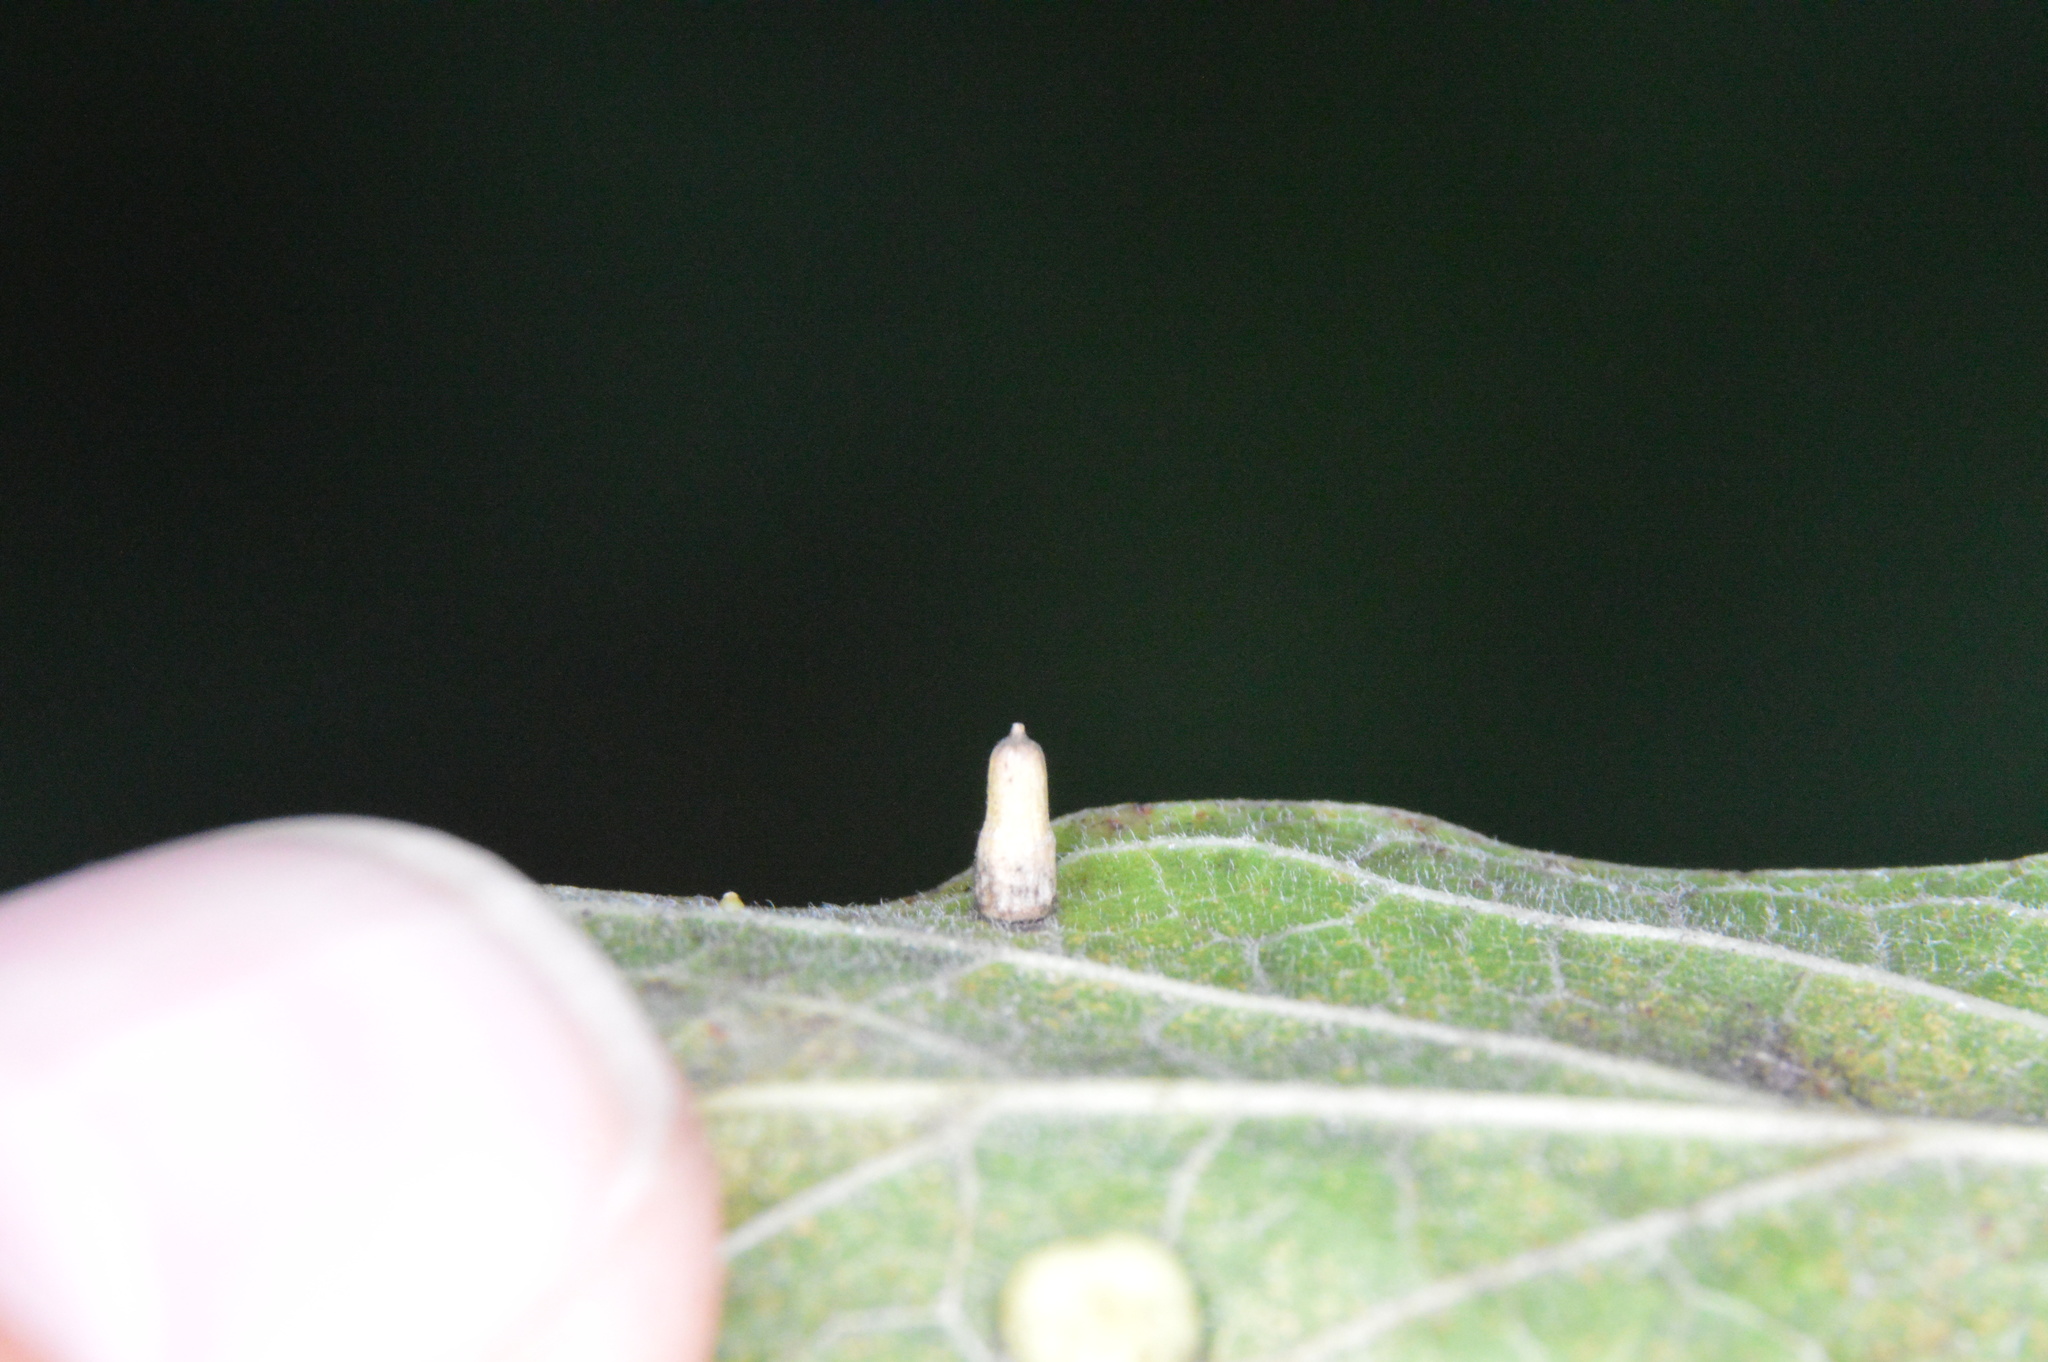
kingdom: Animalia
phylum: Arthropoda
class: Insecta
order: Diptera
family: Cecidomyiidae
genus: Celticecis
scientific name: Celticecis aciculata
